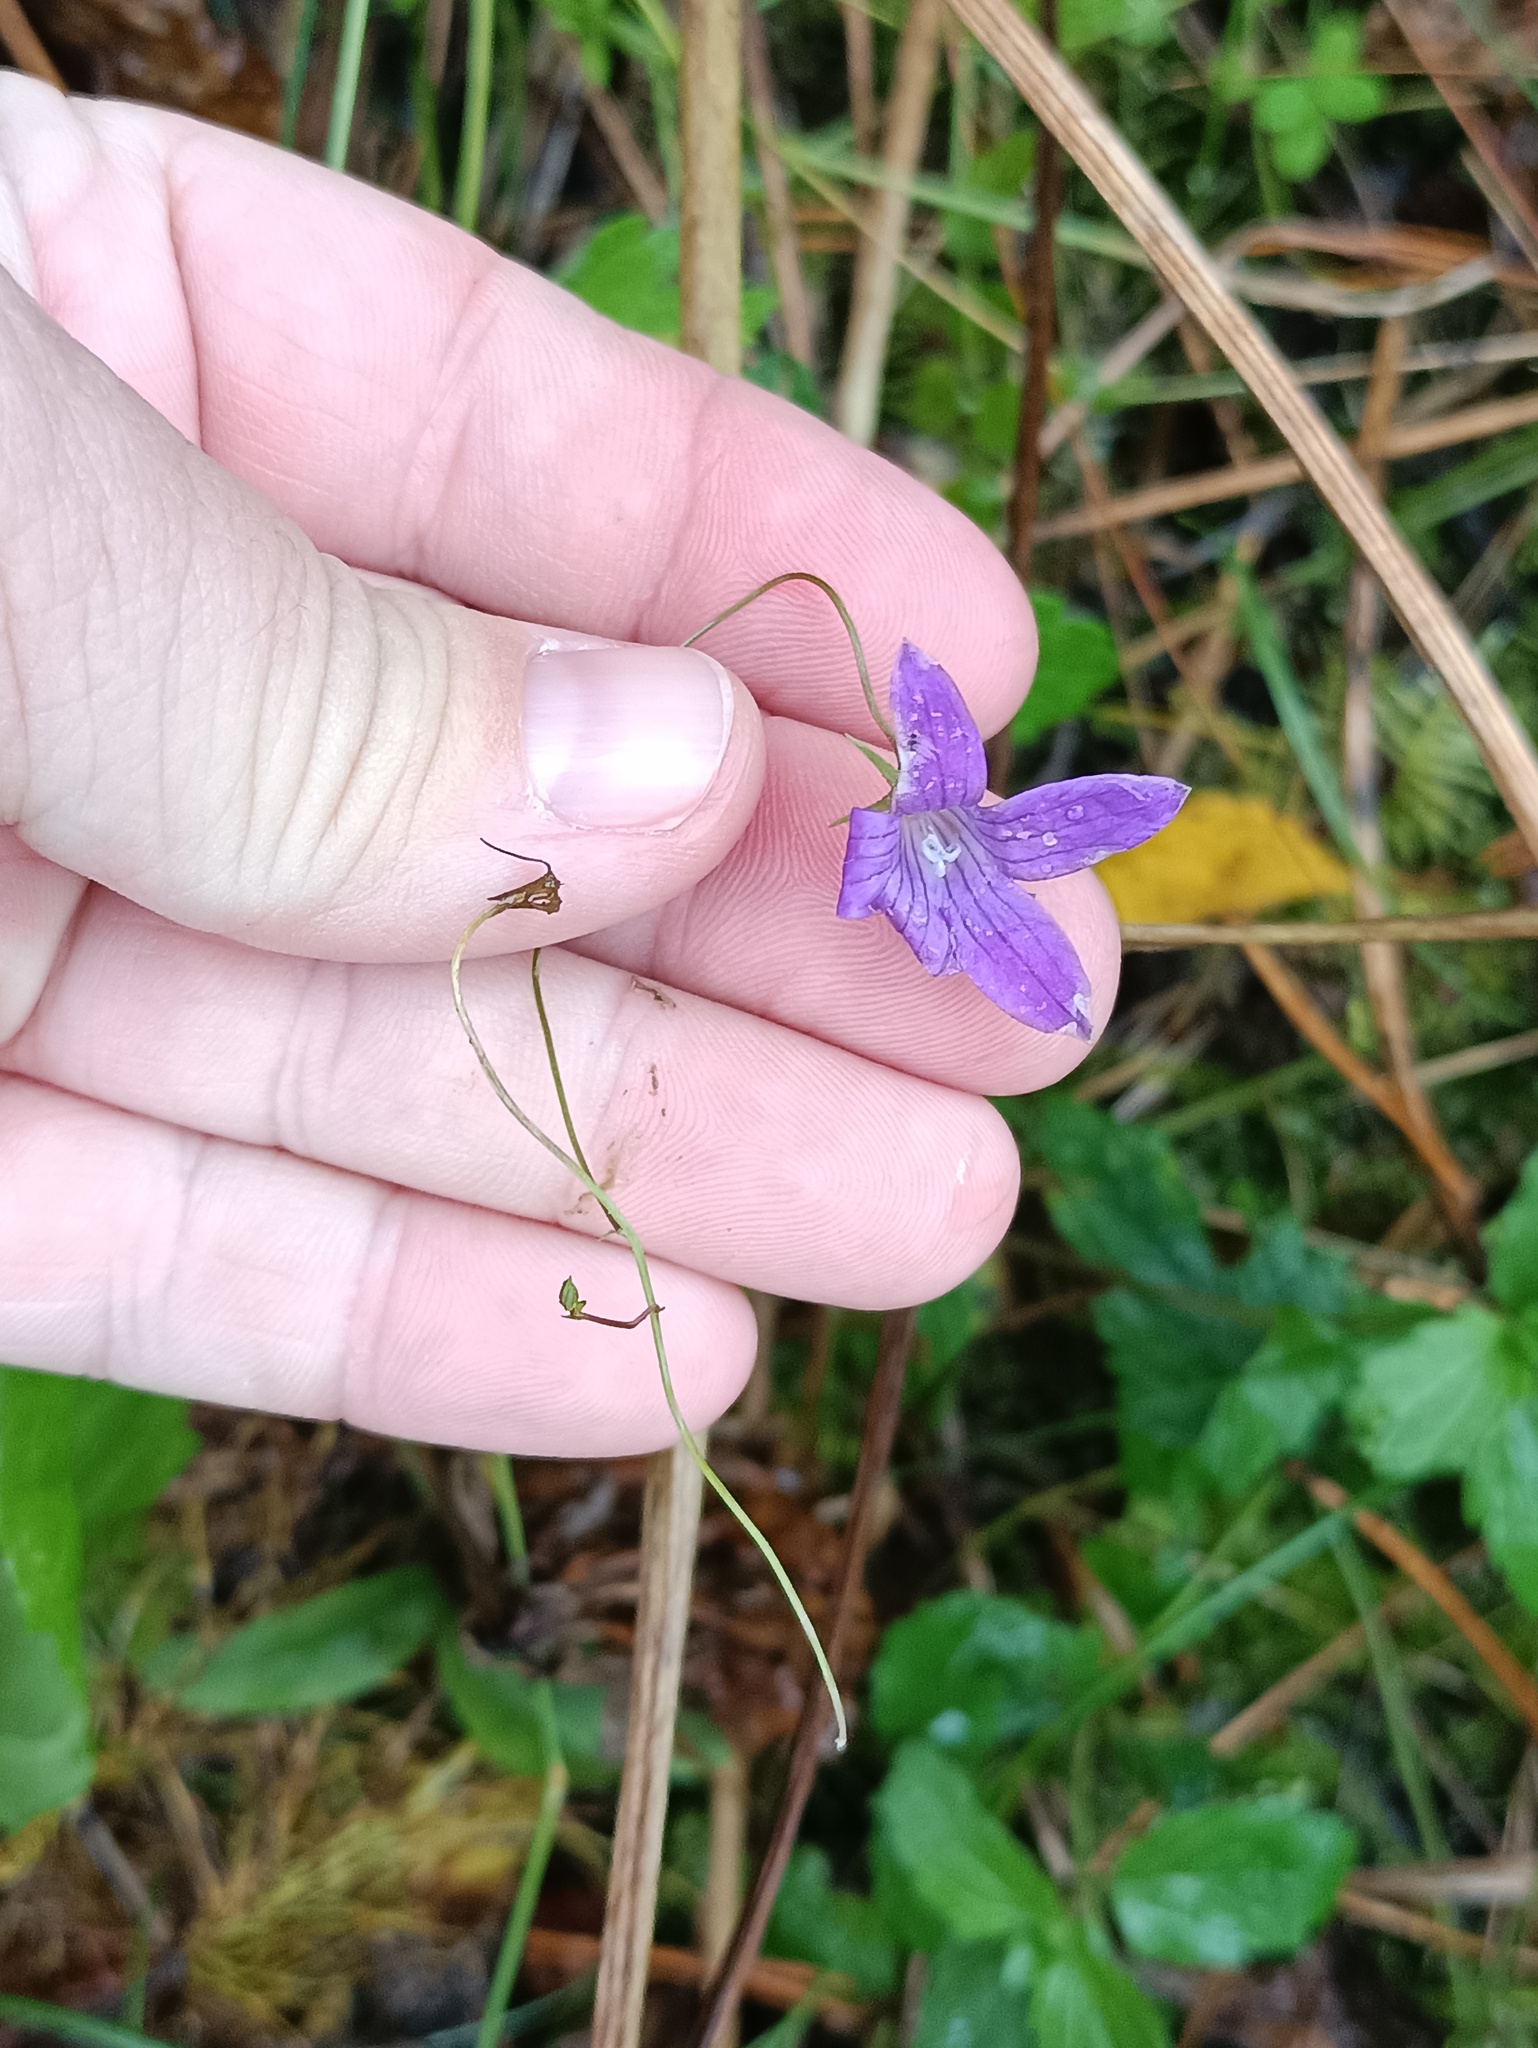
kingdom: Plantae
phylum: Tracheophyta
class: Magnoliopsida
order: Asterales
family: Campanulaceae
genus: Campanula
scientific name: Campanula patula
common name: Spreading bellflower
